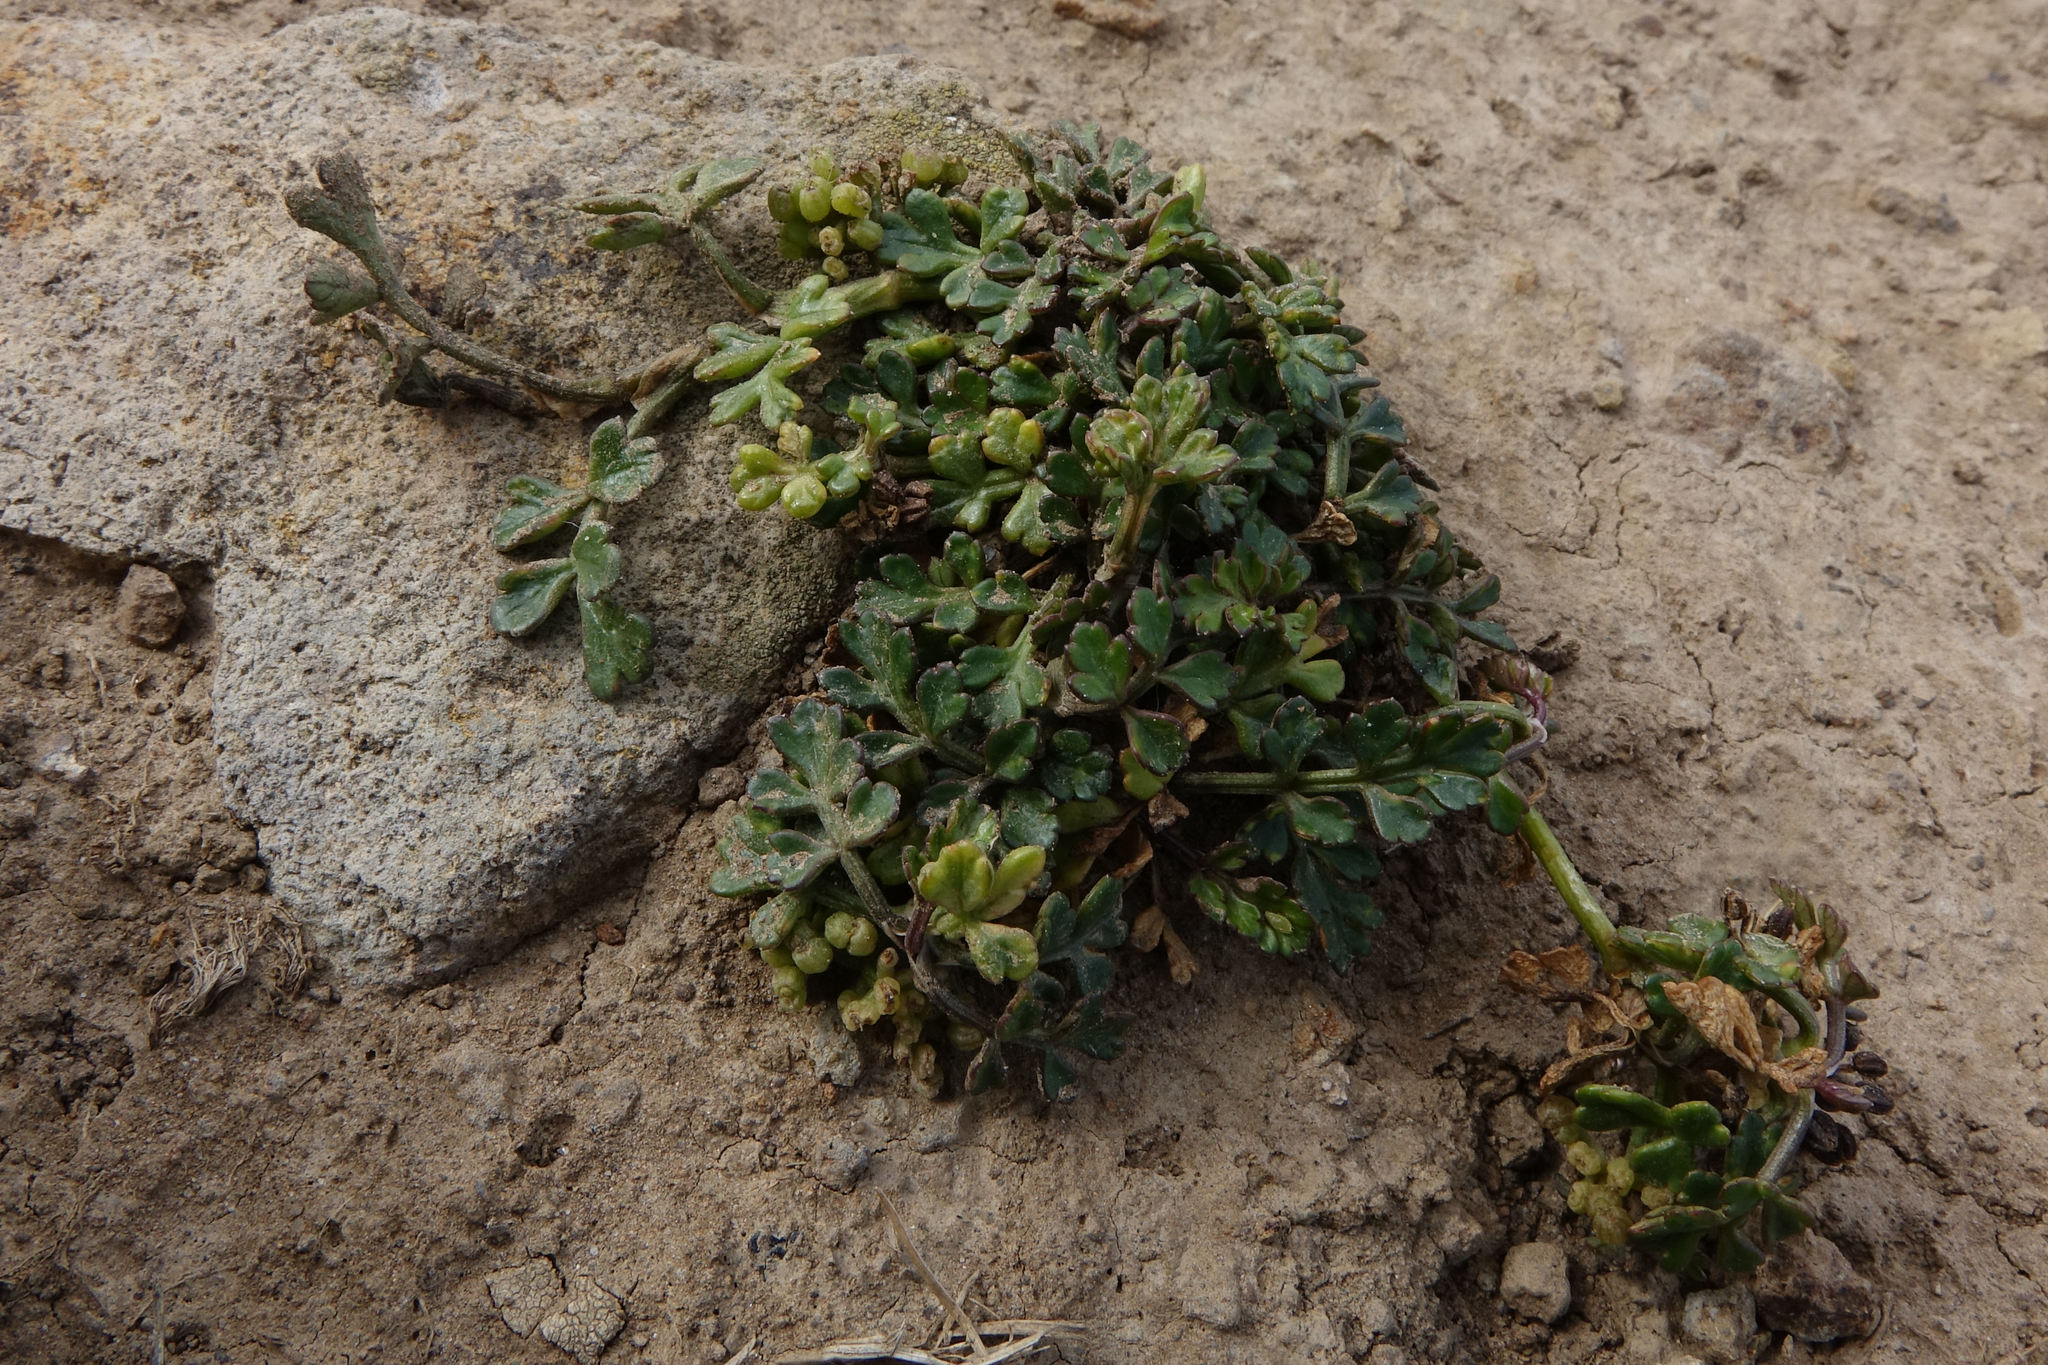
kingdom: Plantae
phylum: Tracheophyta
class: Magnoliopsida
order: Apiales
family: Apiaceae
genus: Apium
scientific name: Apium prostratum
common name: Prostrate marshwort
